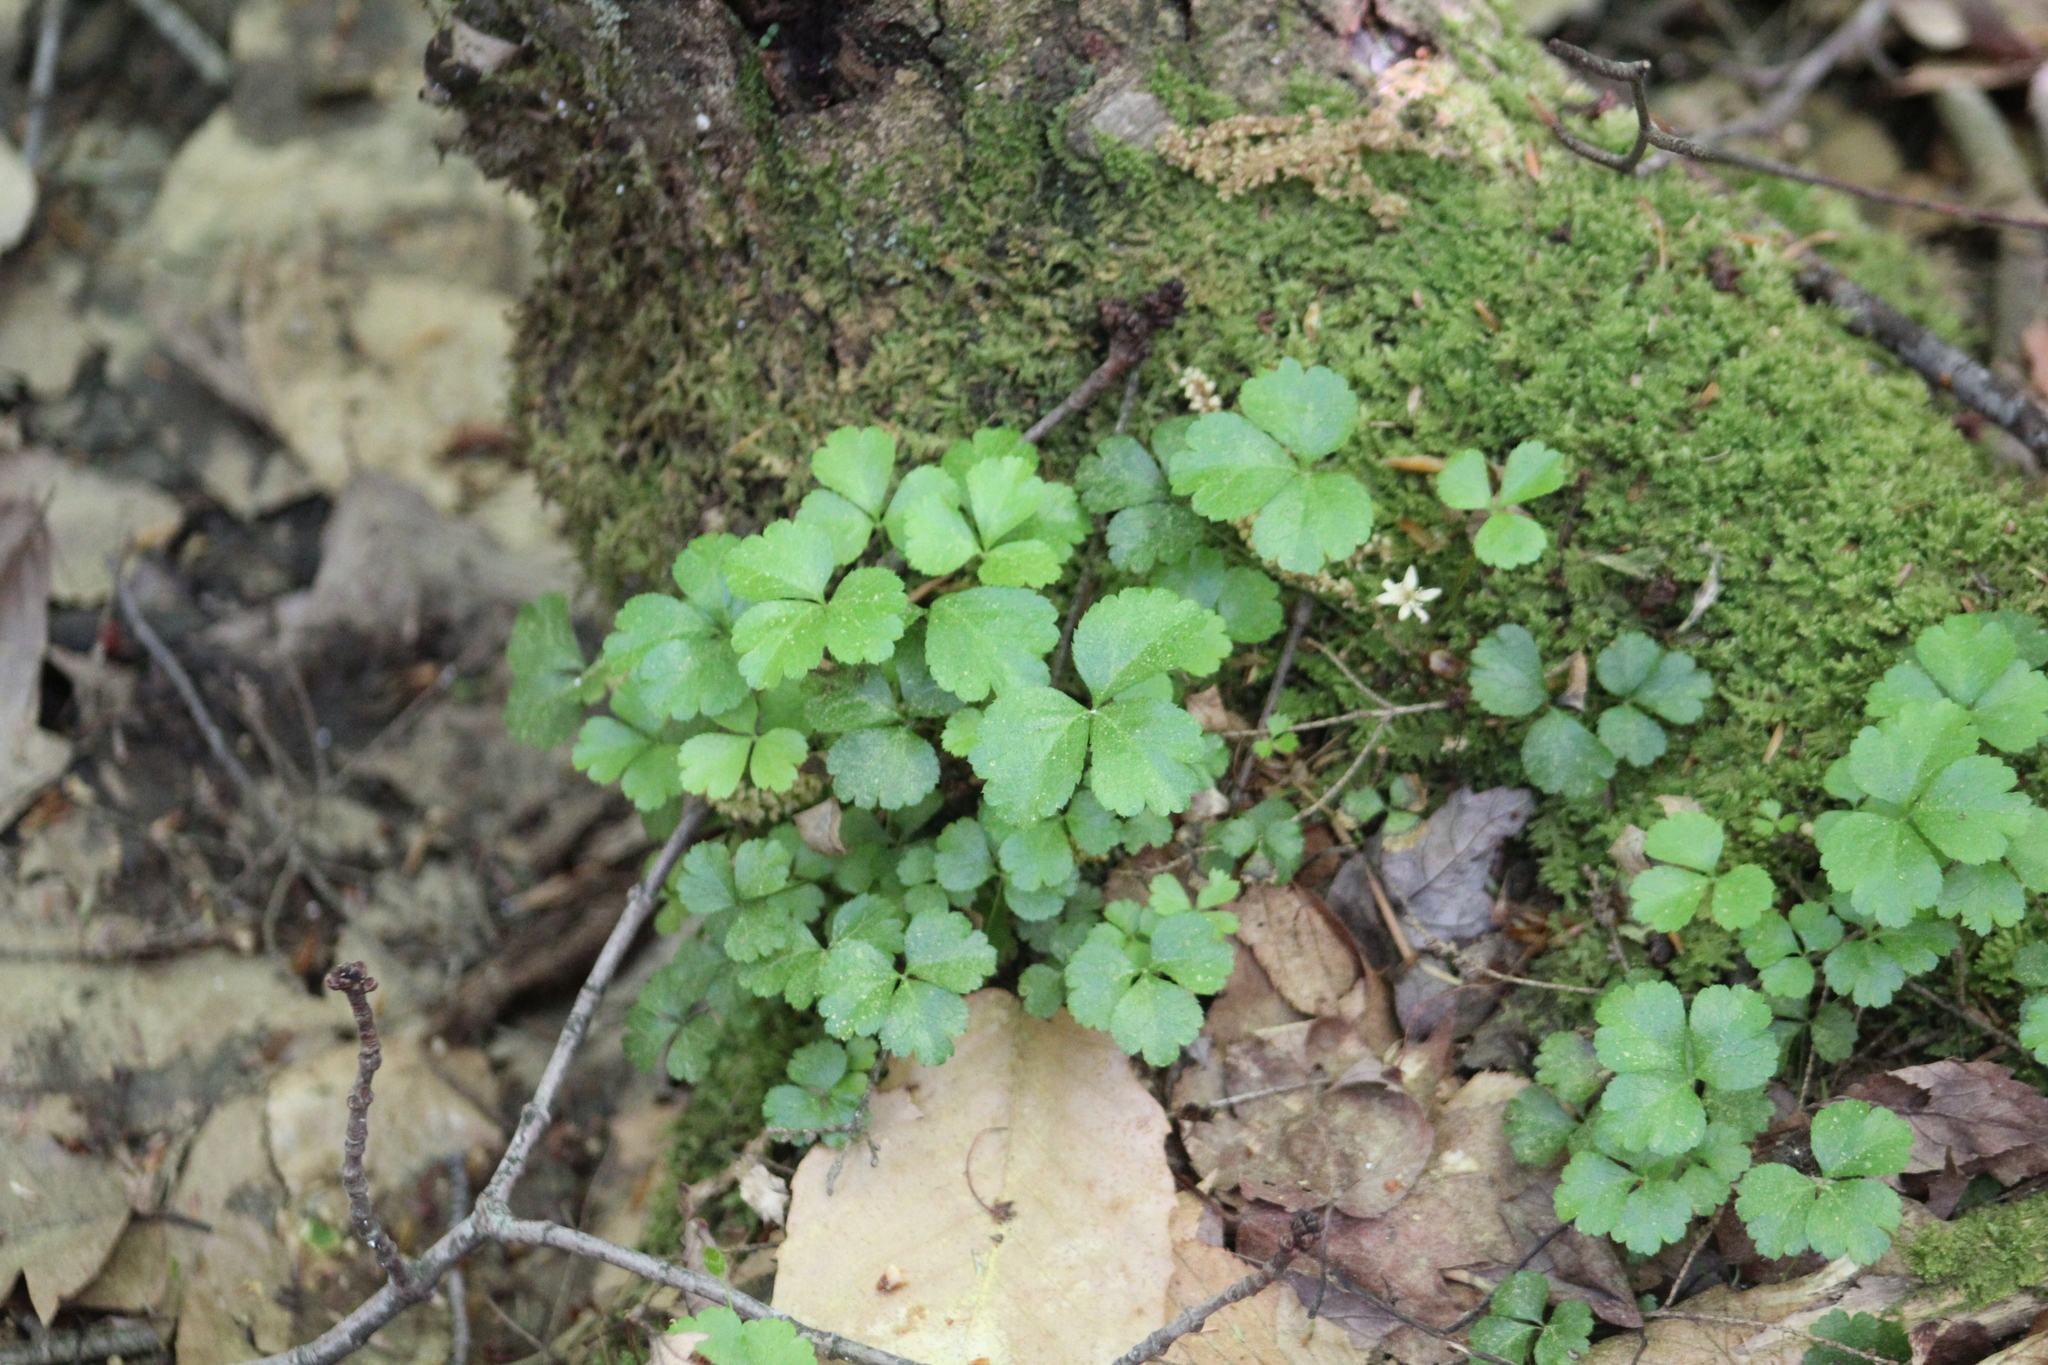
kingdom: Plantae
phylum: Tracheophyta
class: Magnoliopsida
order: Ranunculales
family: Ranunculaceae
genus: Coptis
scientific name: Coptis trifolia
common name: Canker-root
